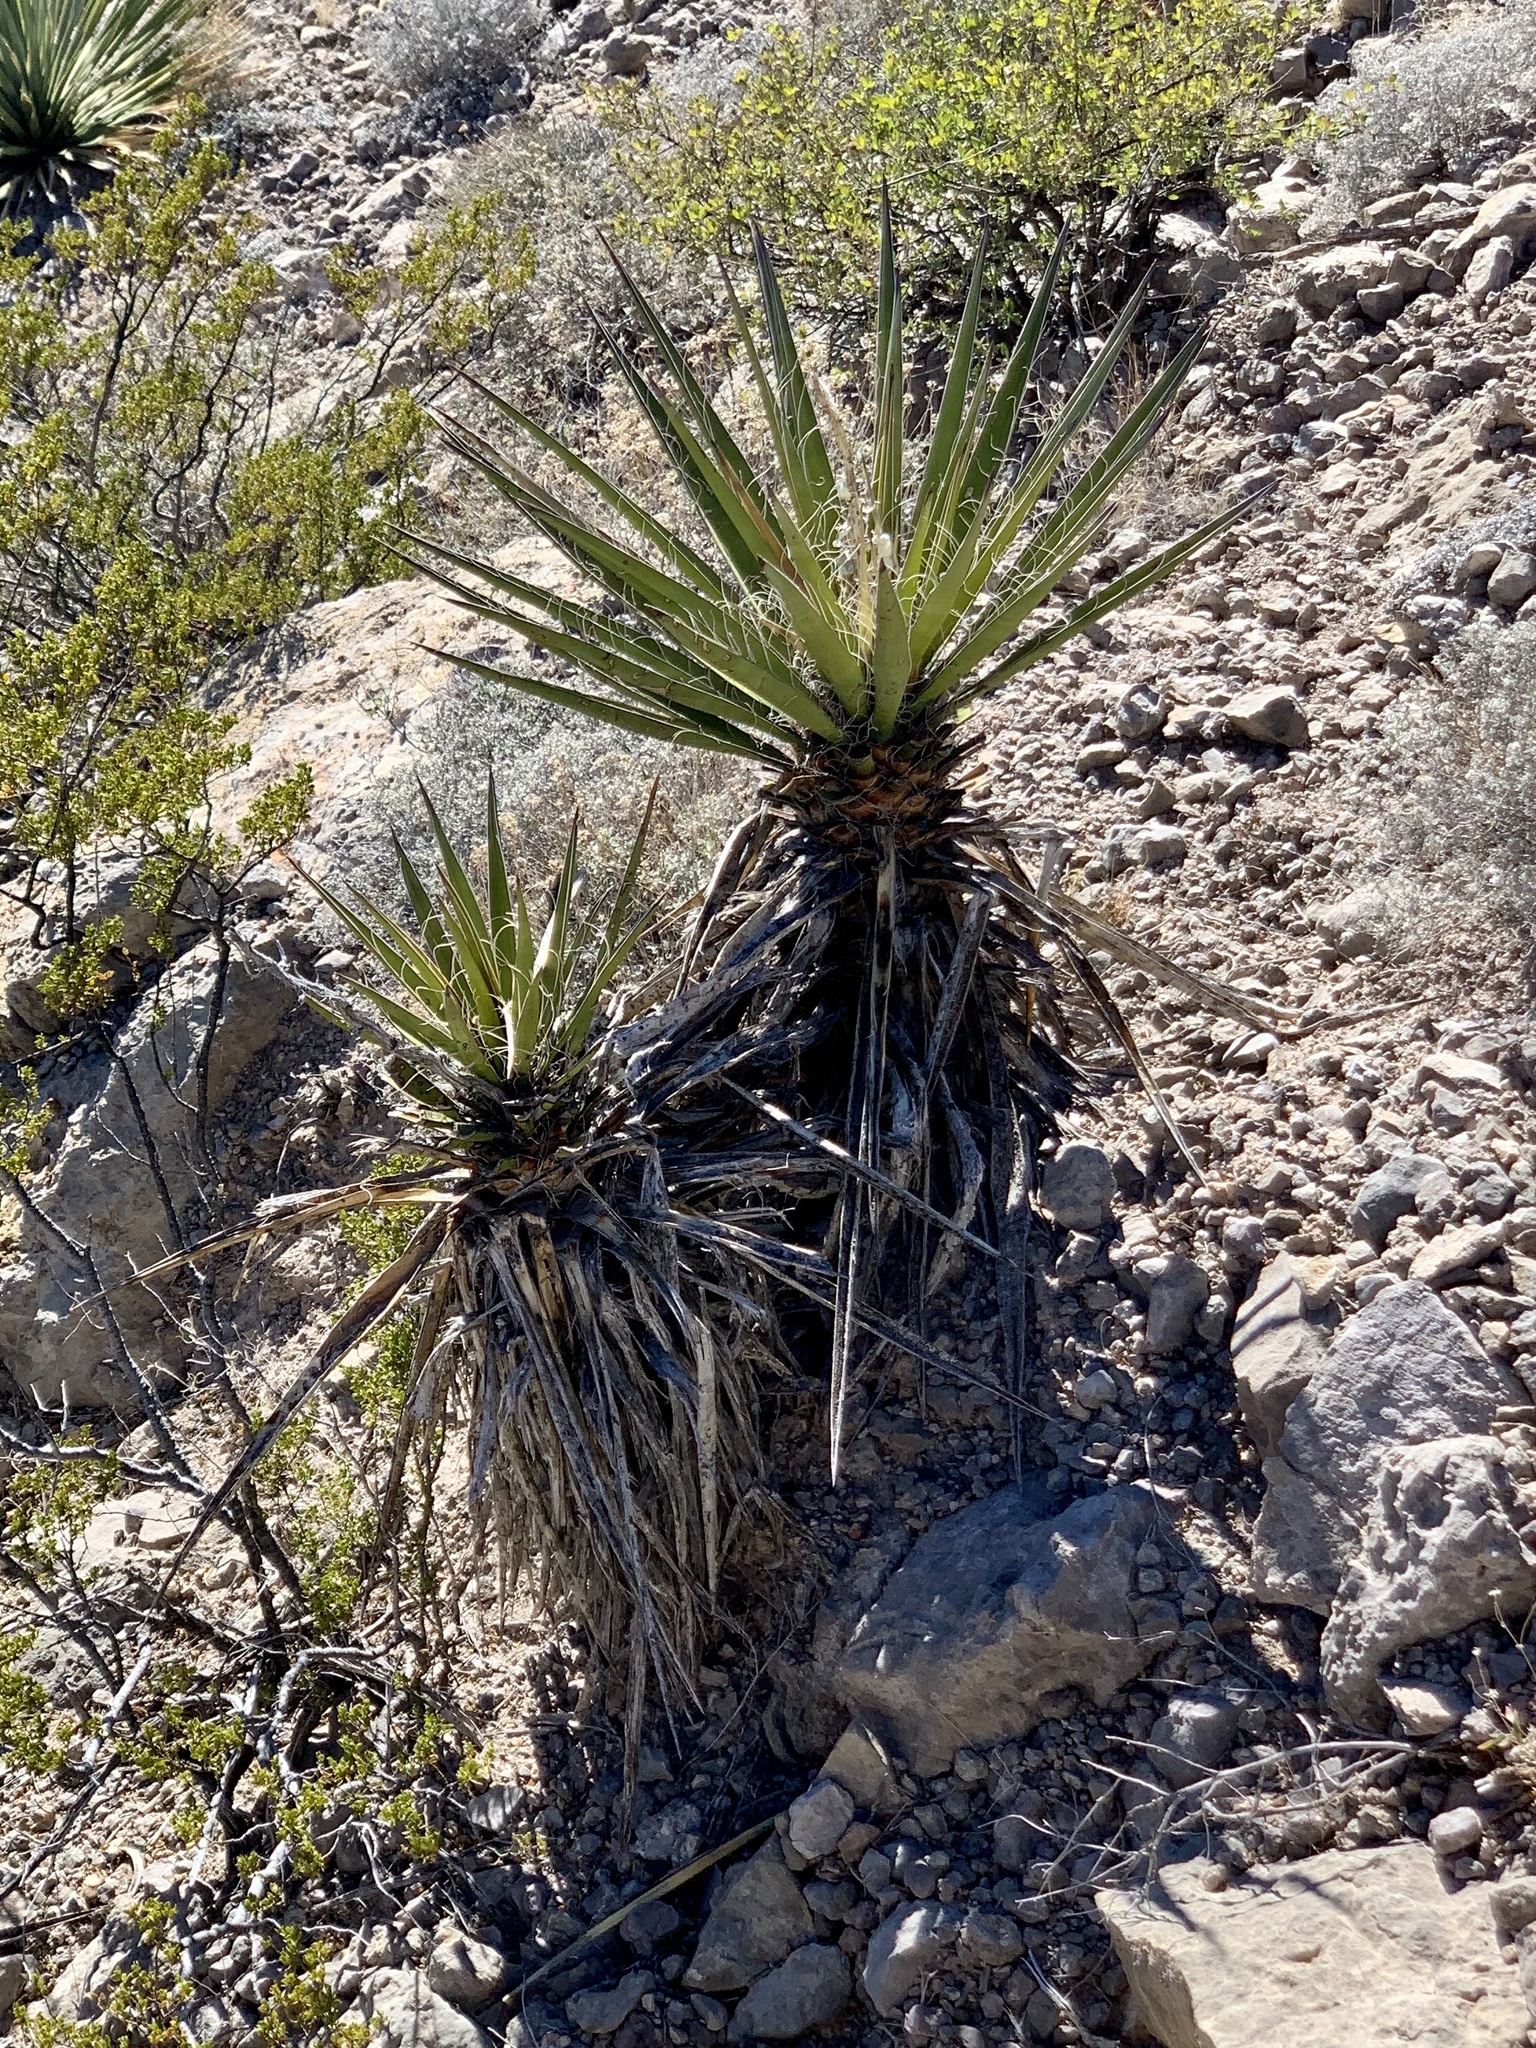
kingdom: Plantae
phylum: Tracheophyta
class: Liliopsida
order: Asparagales
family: Asparagaceae
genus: Yucca
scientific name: Yucca treculiana
